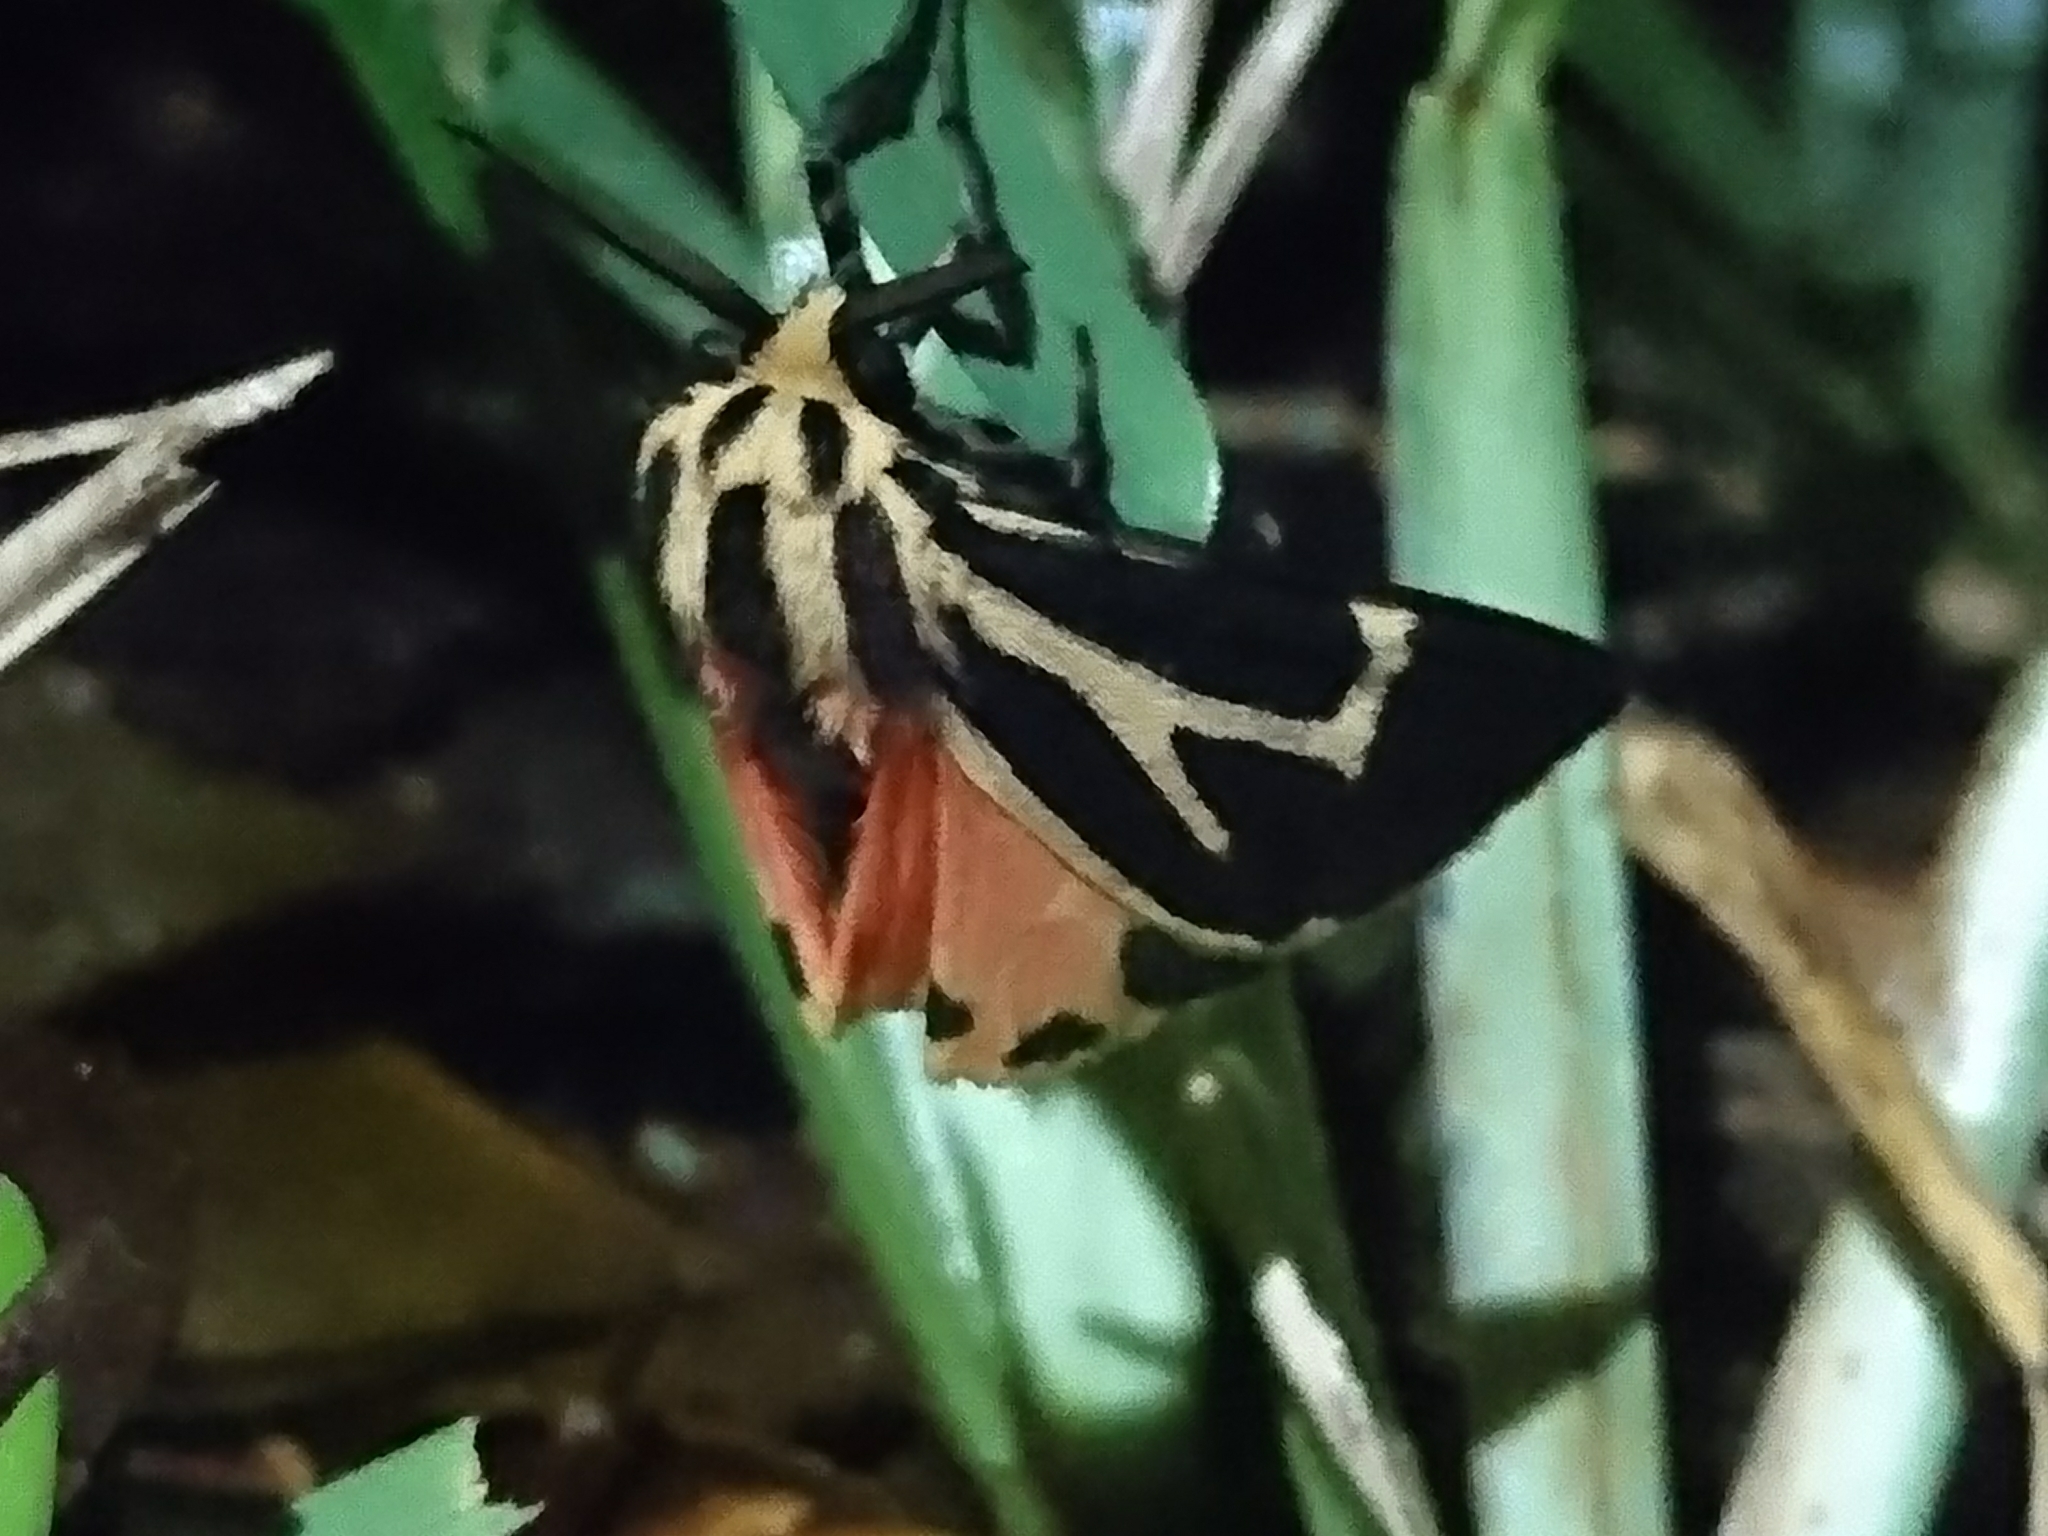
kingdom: Animalia
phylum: Arthropoda
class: Insecta
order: Lepidoptera
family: Erebidae
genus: Apantesis
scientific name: Apantesis phalerata
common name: Harnessed tiger moth
